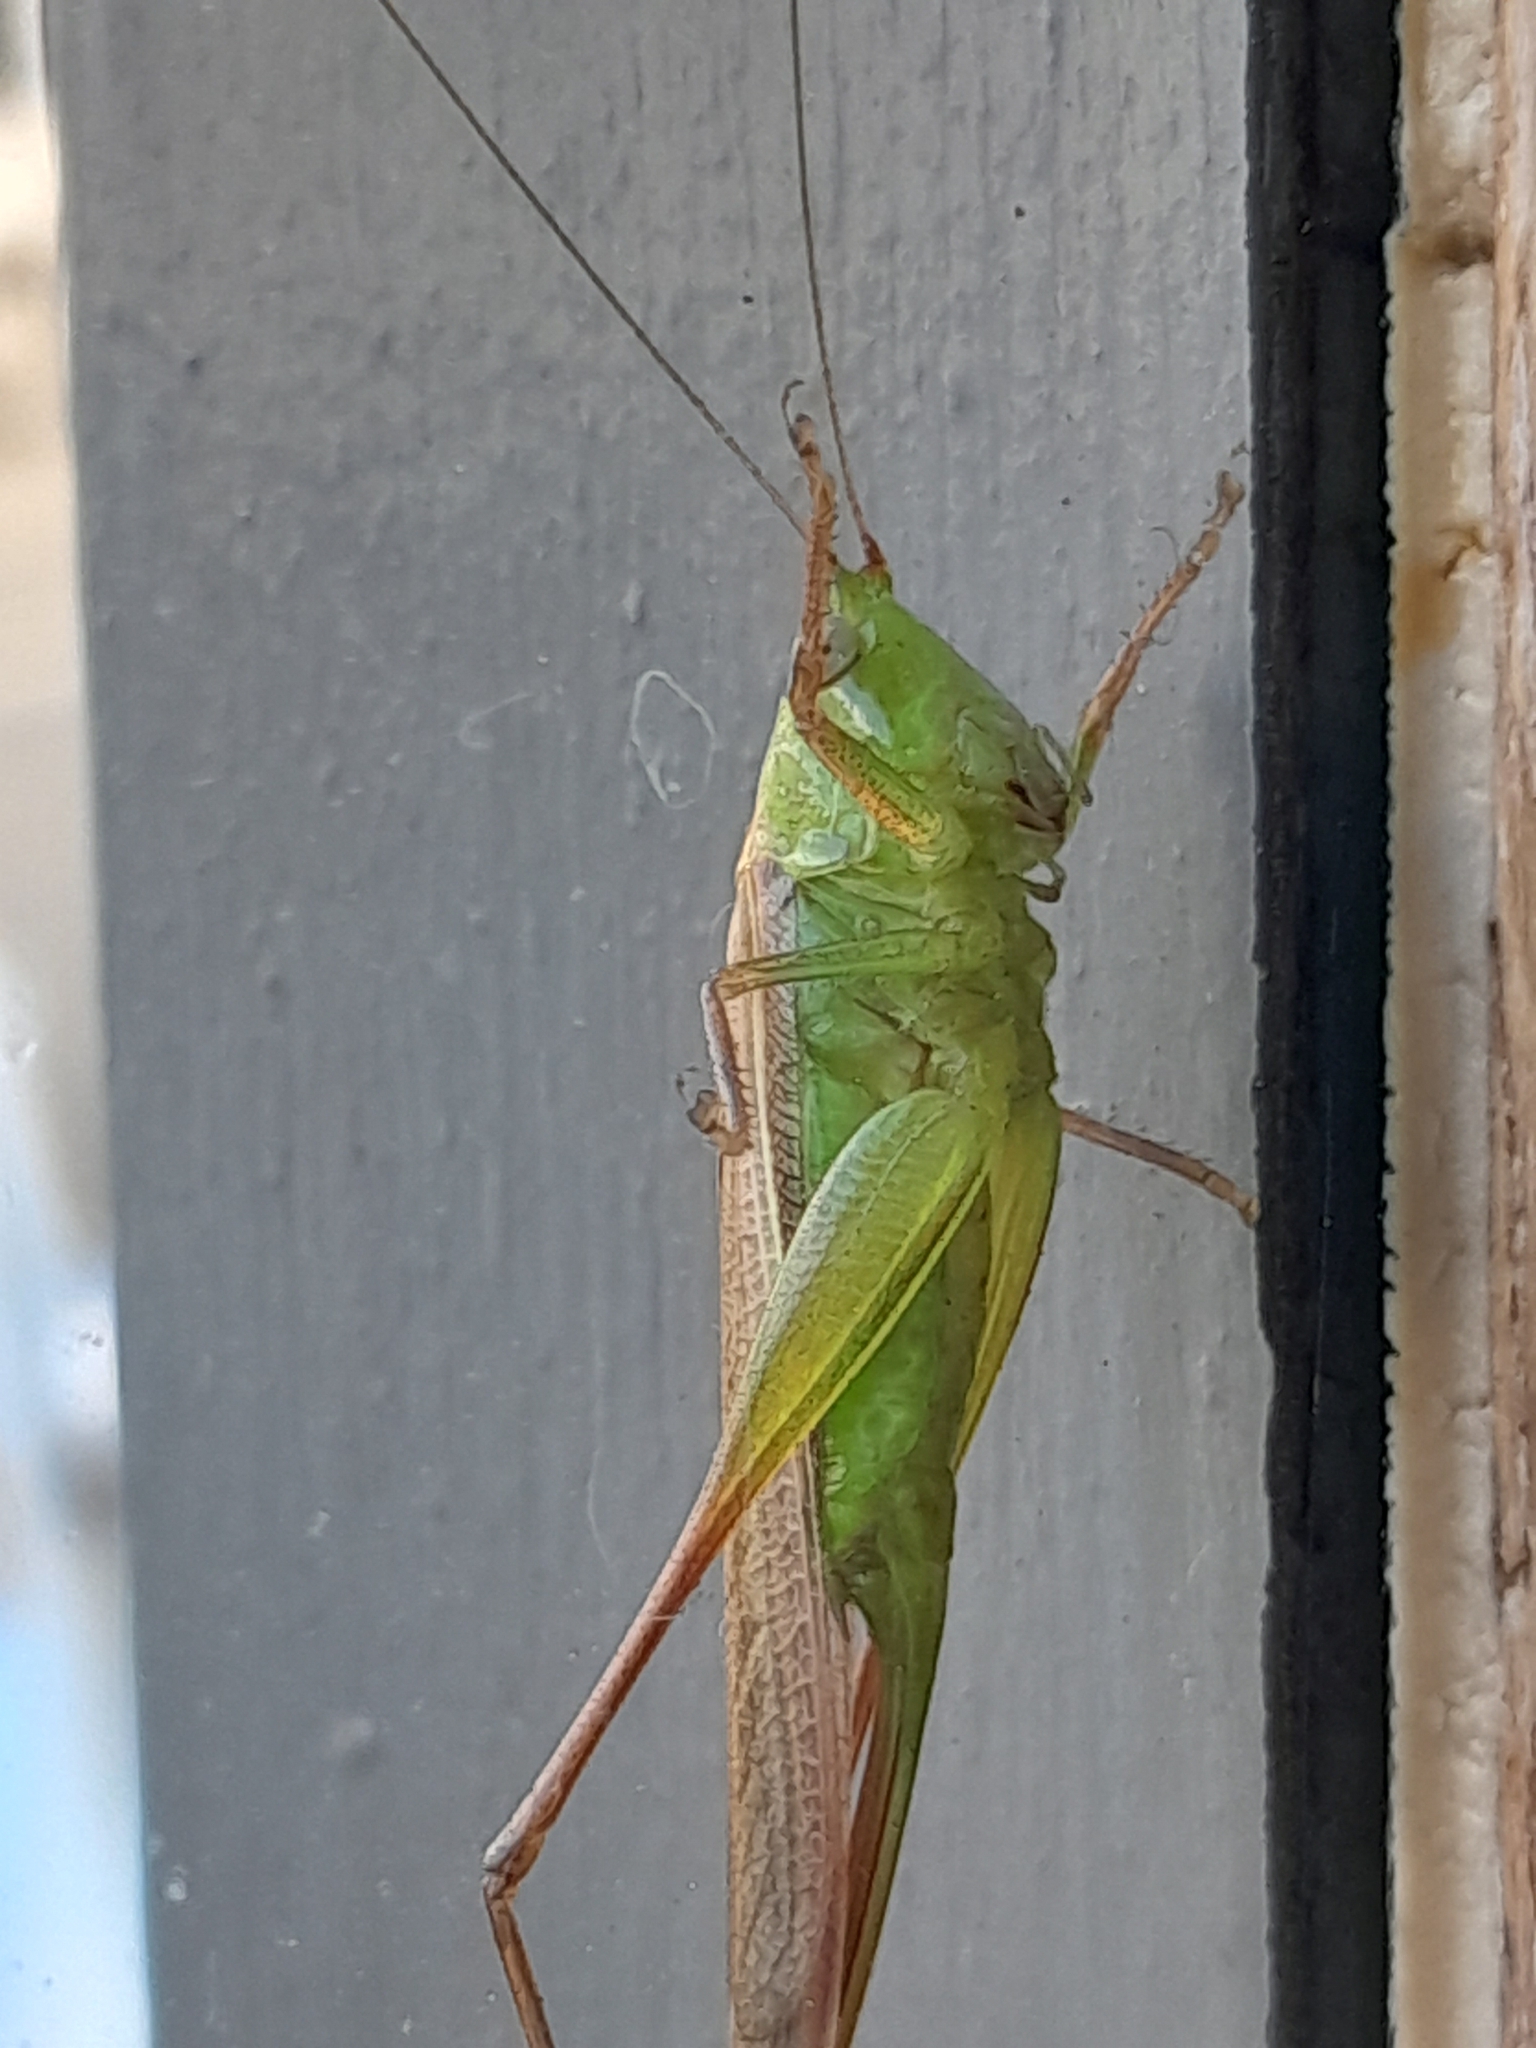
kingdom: Animalia
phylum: Arthropoda
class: Insecta
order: Orthoptera
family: Tettigoniidae
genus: Conocephalus
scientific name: Conocephalus albescens
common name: Whitish meadow katydid
